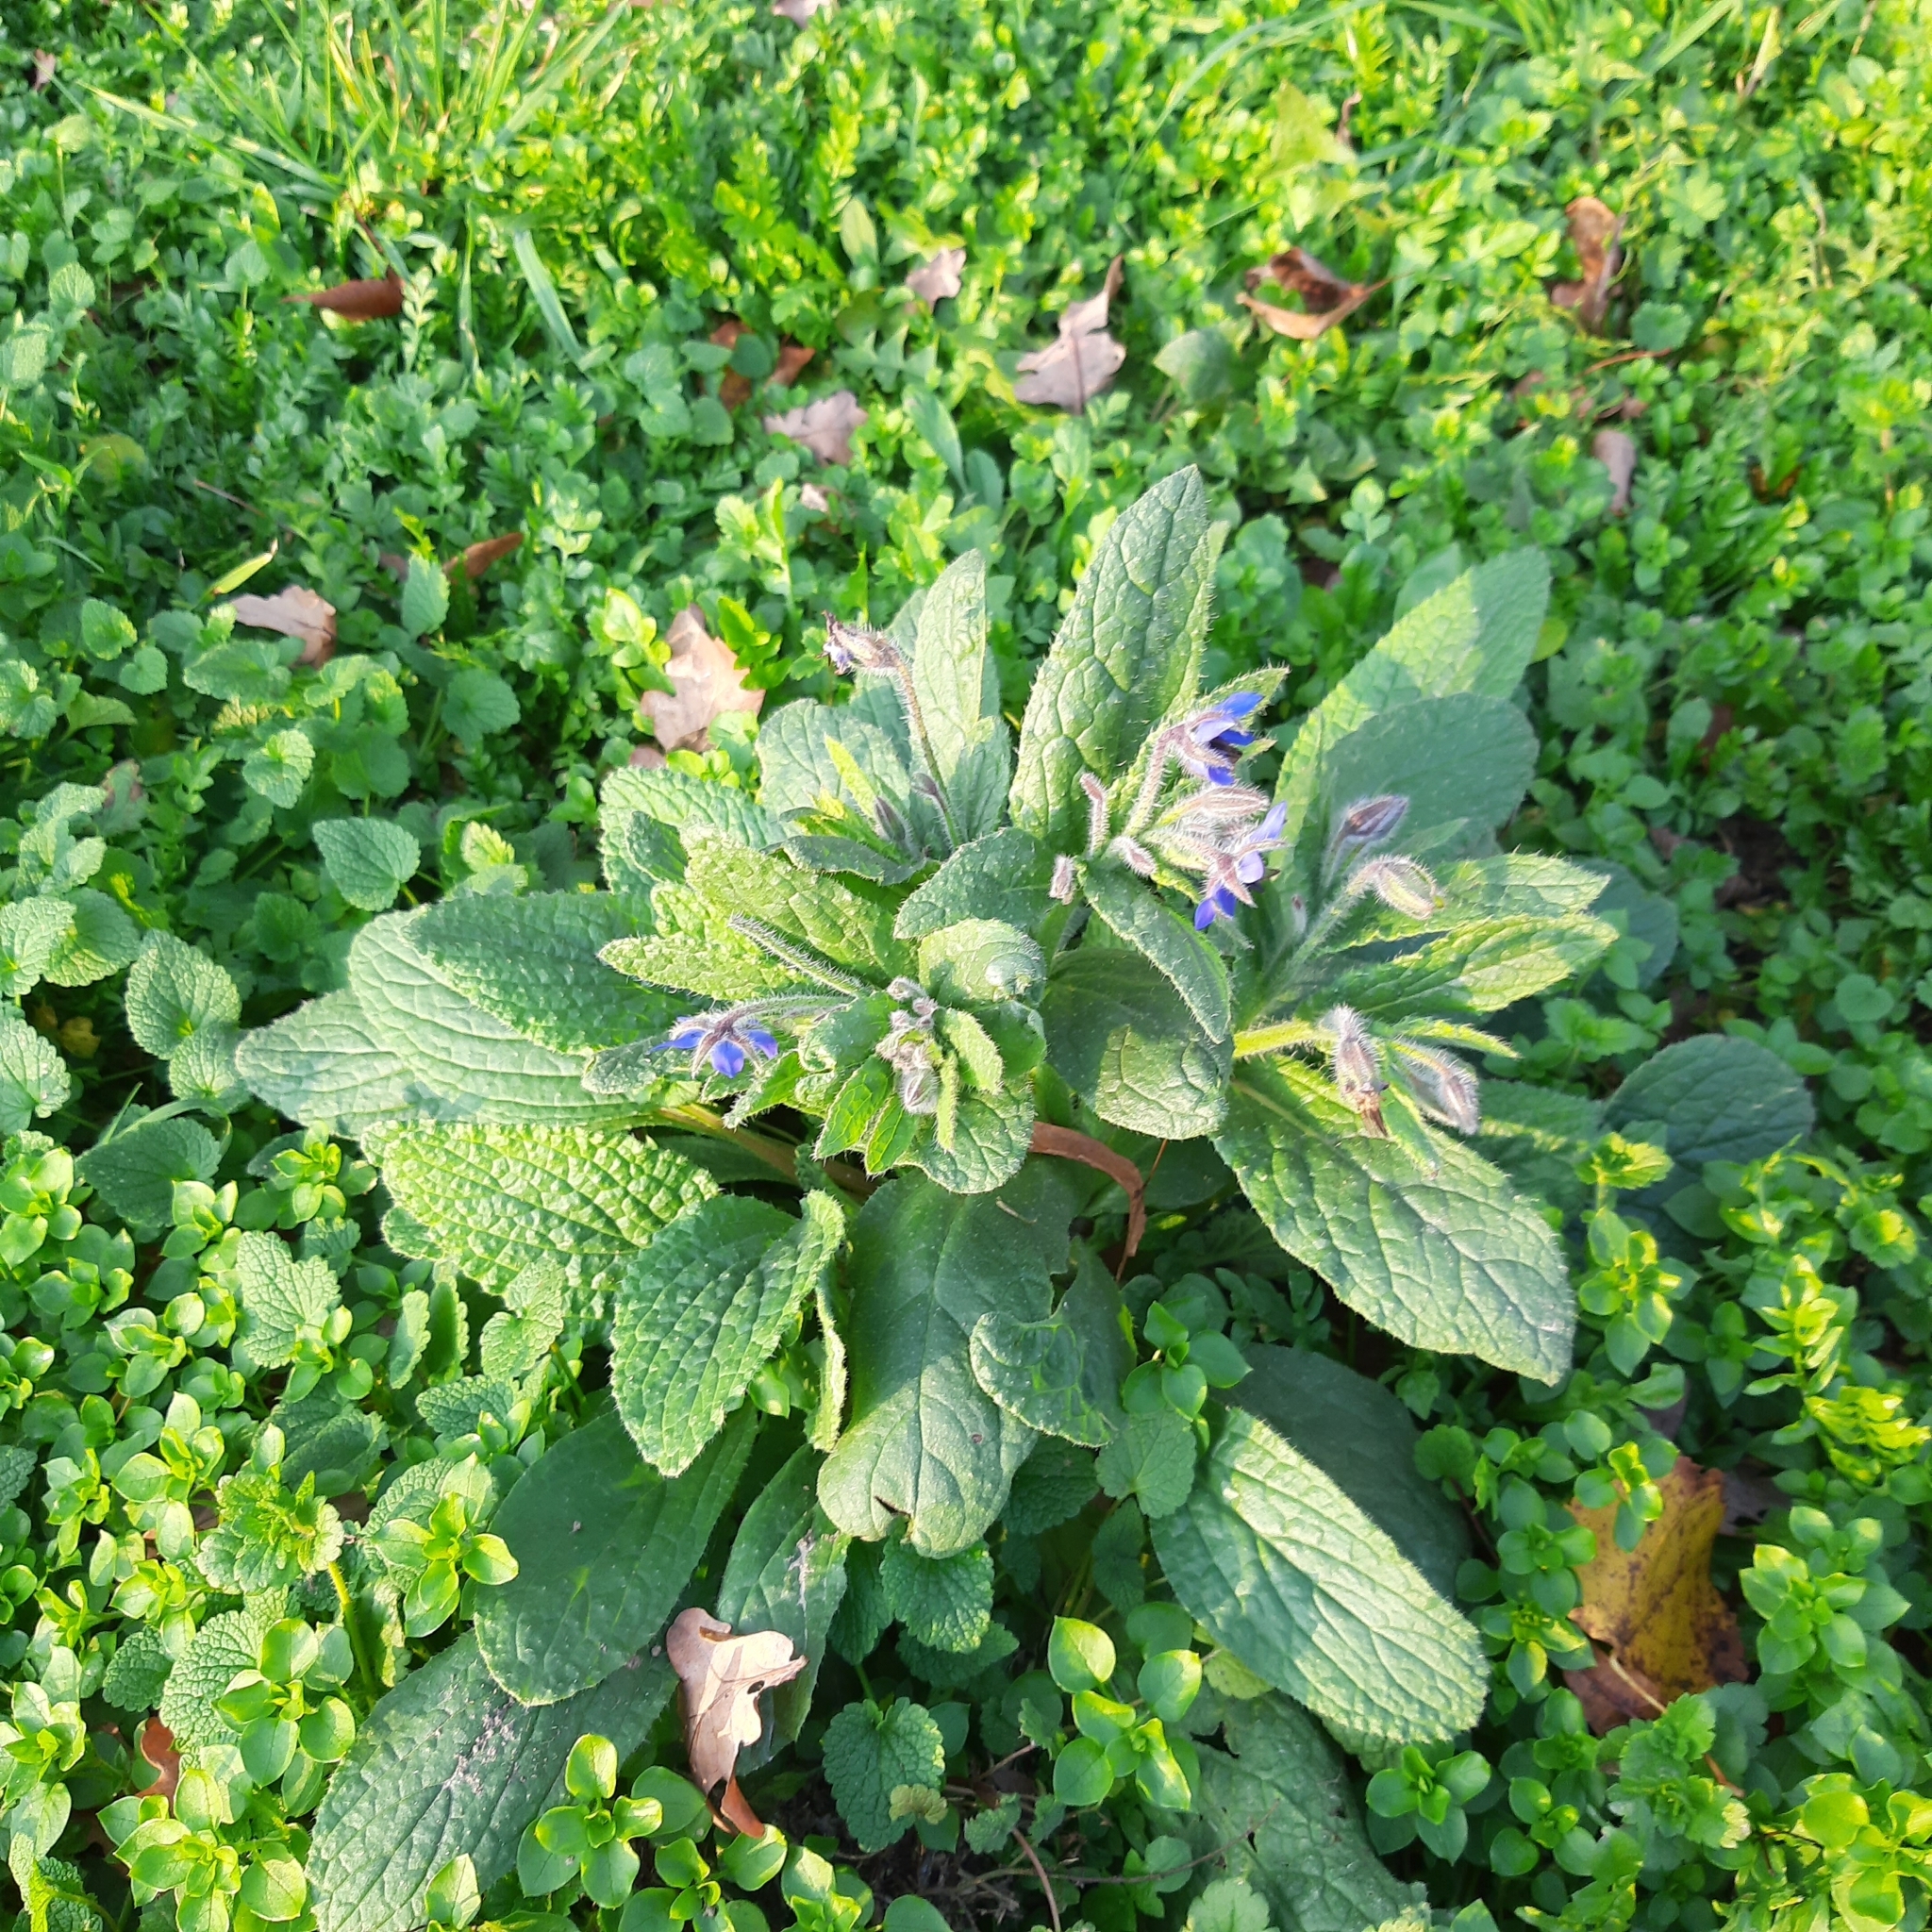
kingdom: Plantae
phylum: Tracheophyta
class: Magnoliopsida
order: Boraginales
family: Boraginaceae
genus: Borago
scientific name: Borago officinalis
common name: Borage
